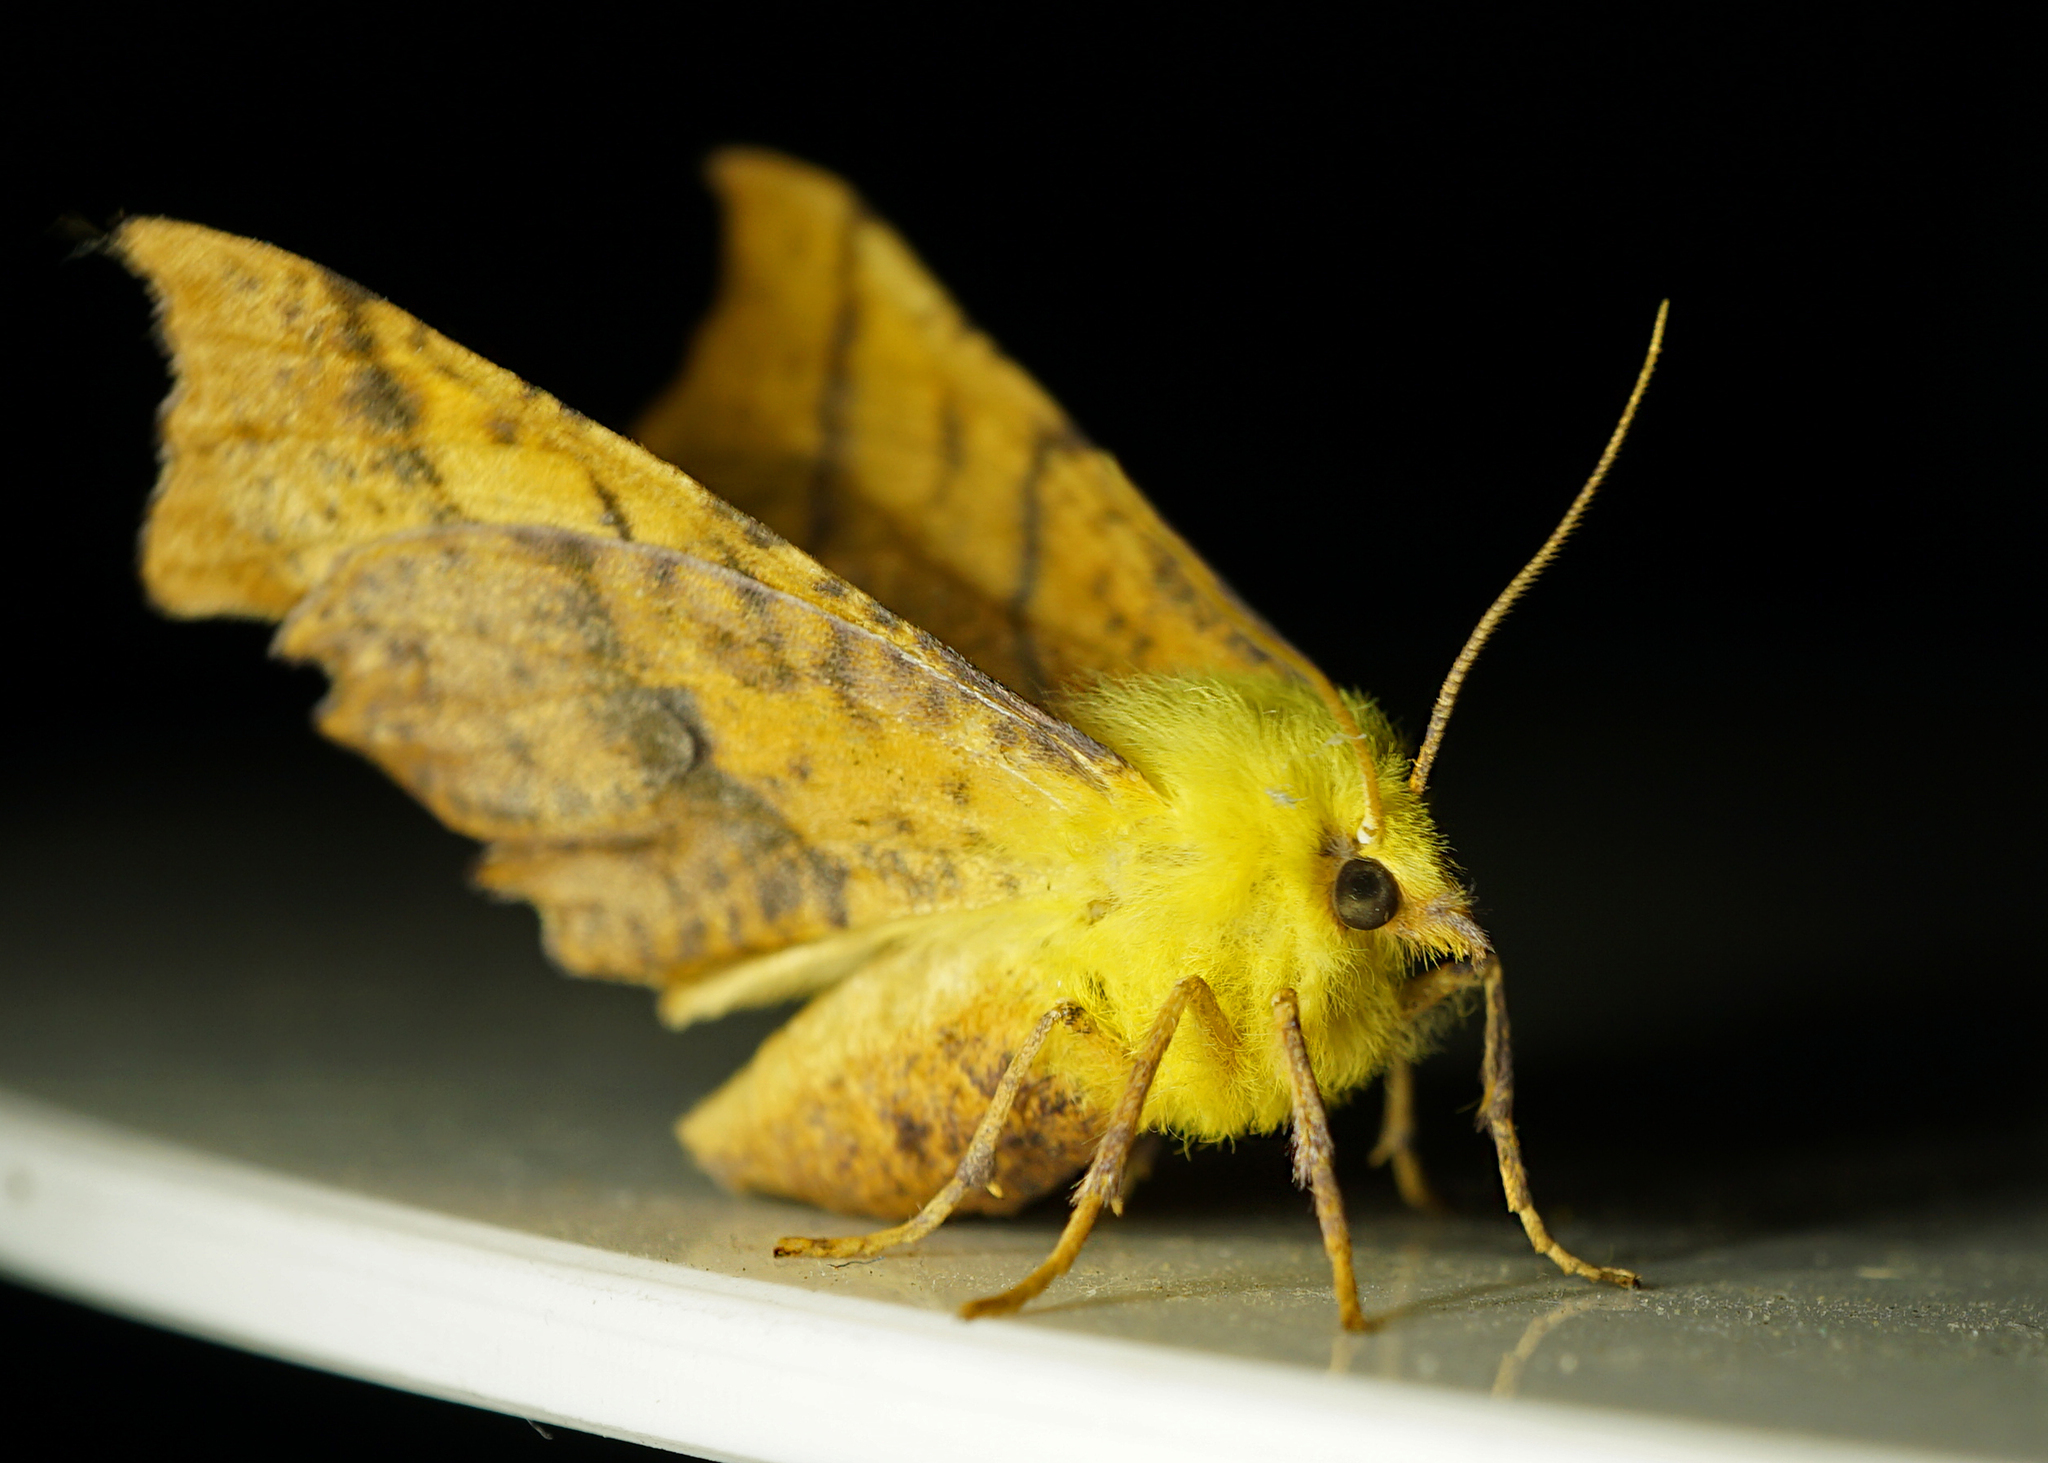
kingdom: Animalia
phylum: Arthropoda
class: Insecta
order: Lepidoptera
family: Geometridae
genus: Ennomos
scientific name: Ennomos alniaria
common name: Canary-shouldered thorn
